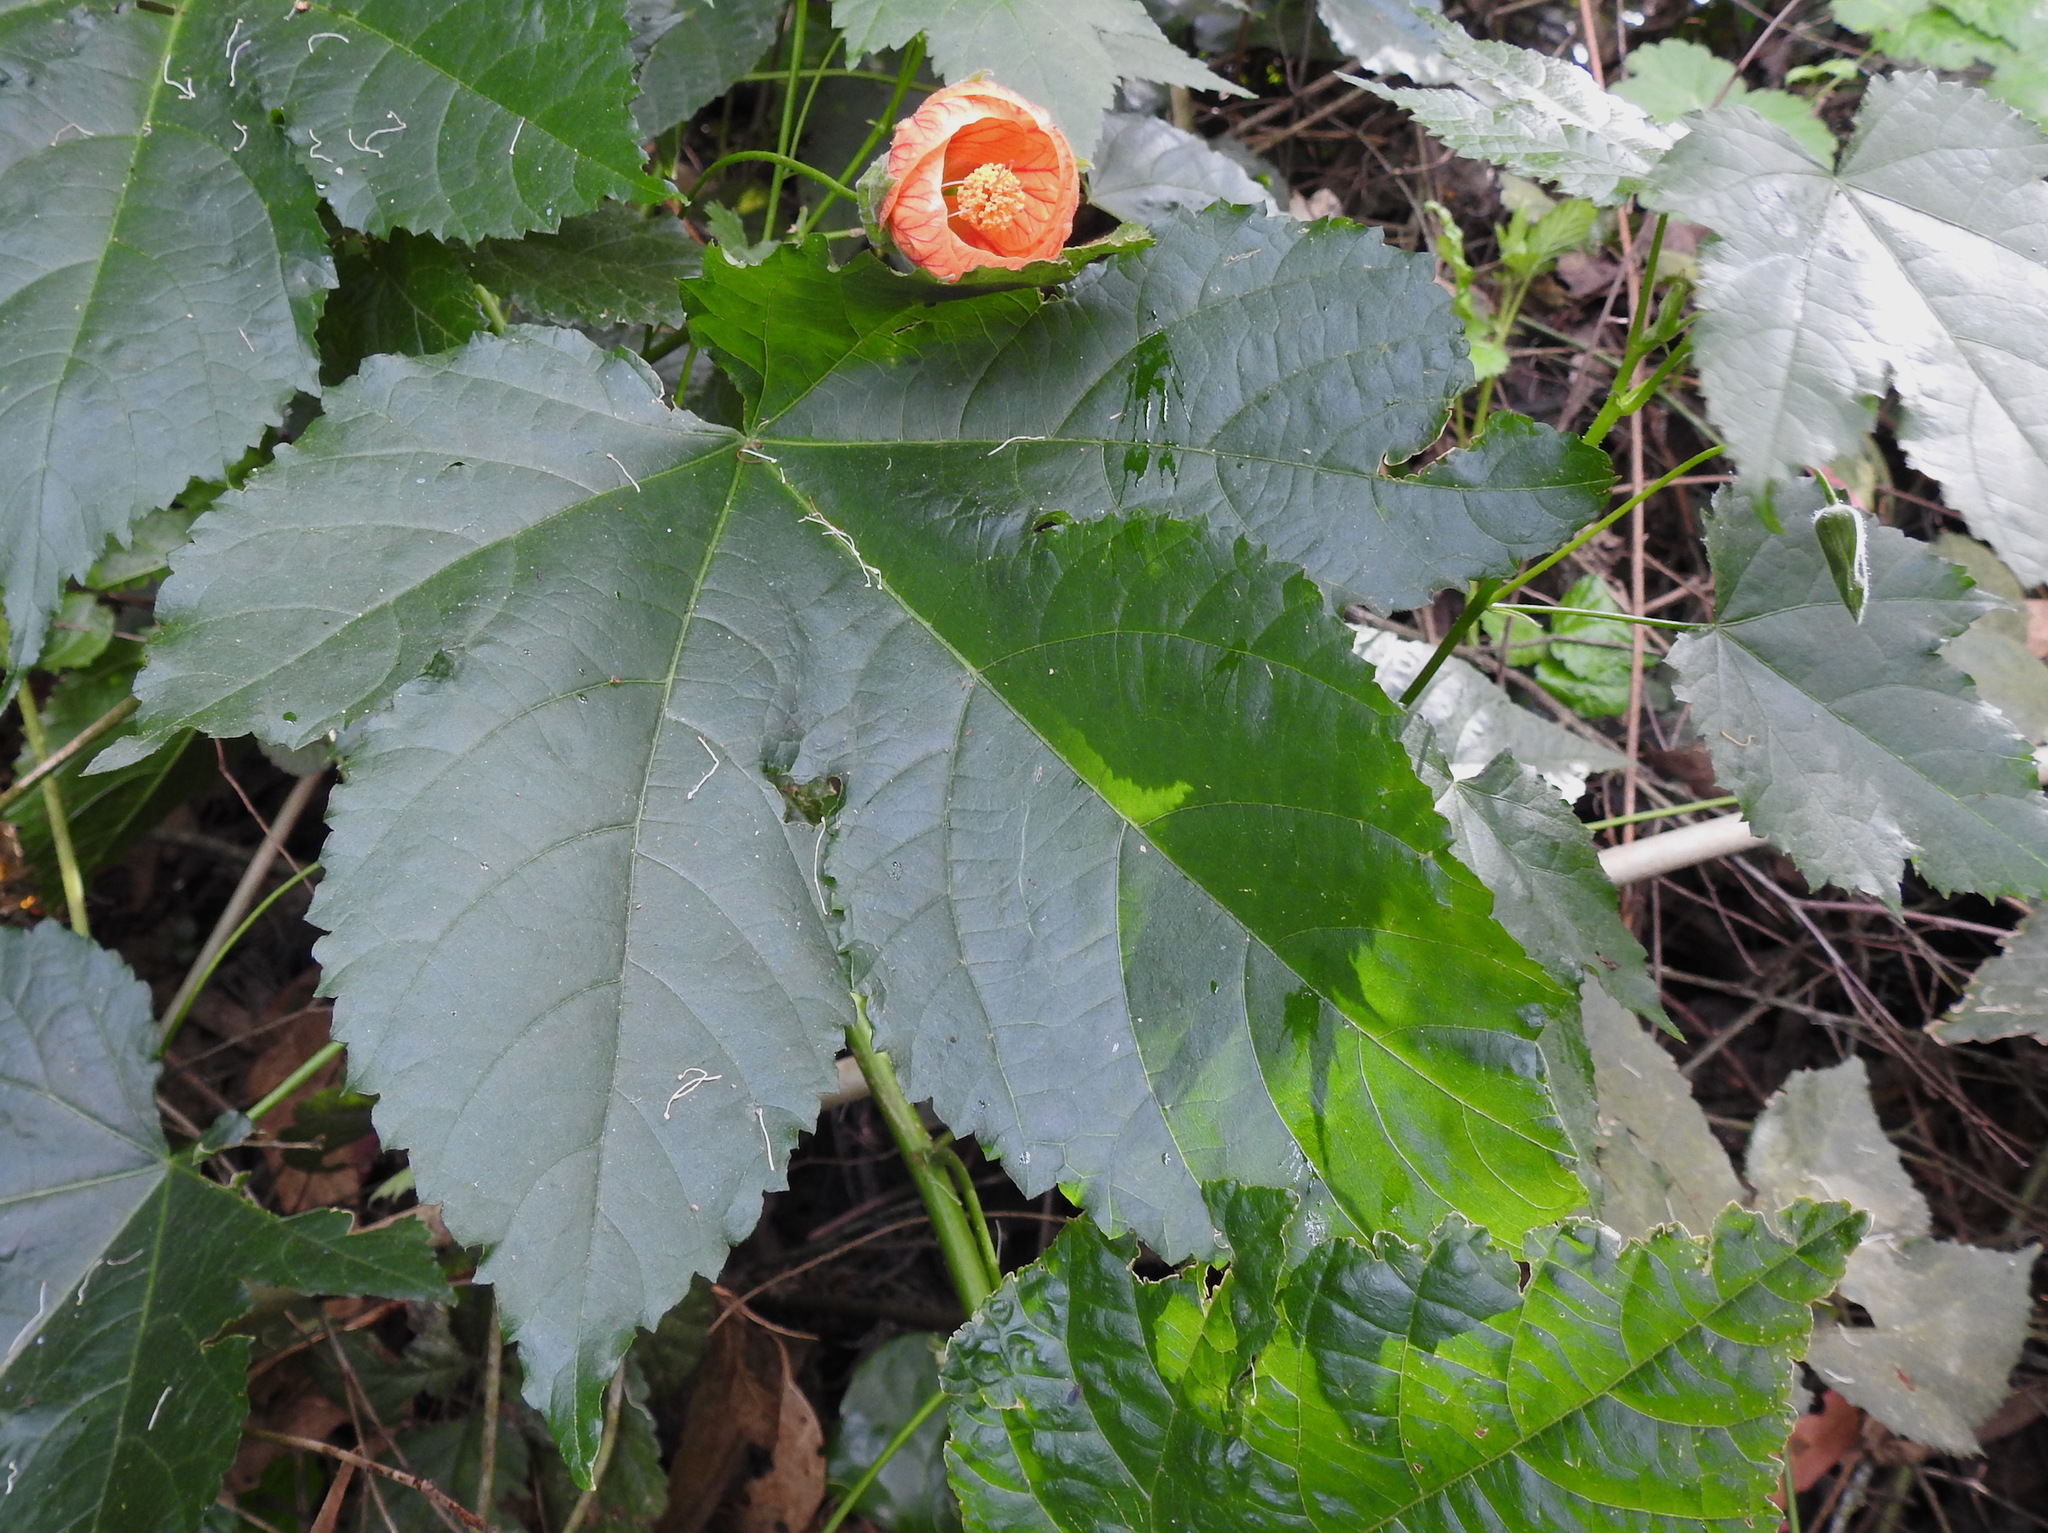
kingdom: Plantae
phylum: Tracheophyta
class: Magnoliopsida
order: Malvales
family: Malvaceae
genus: Callianthe
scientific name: Callianthe picta
